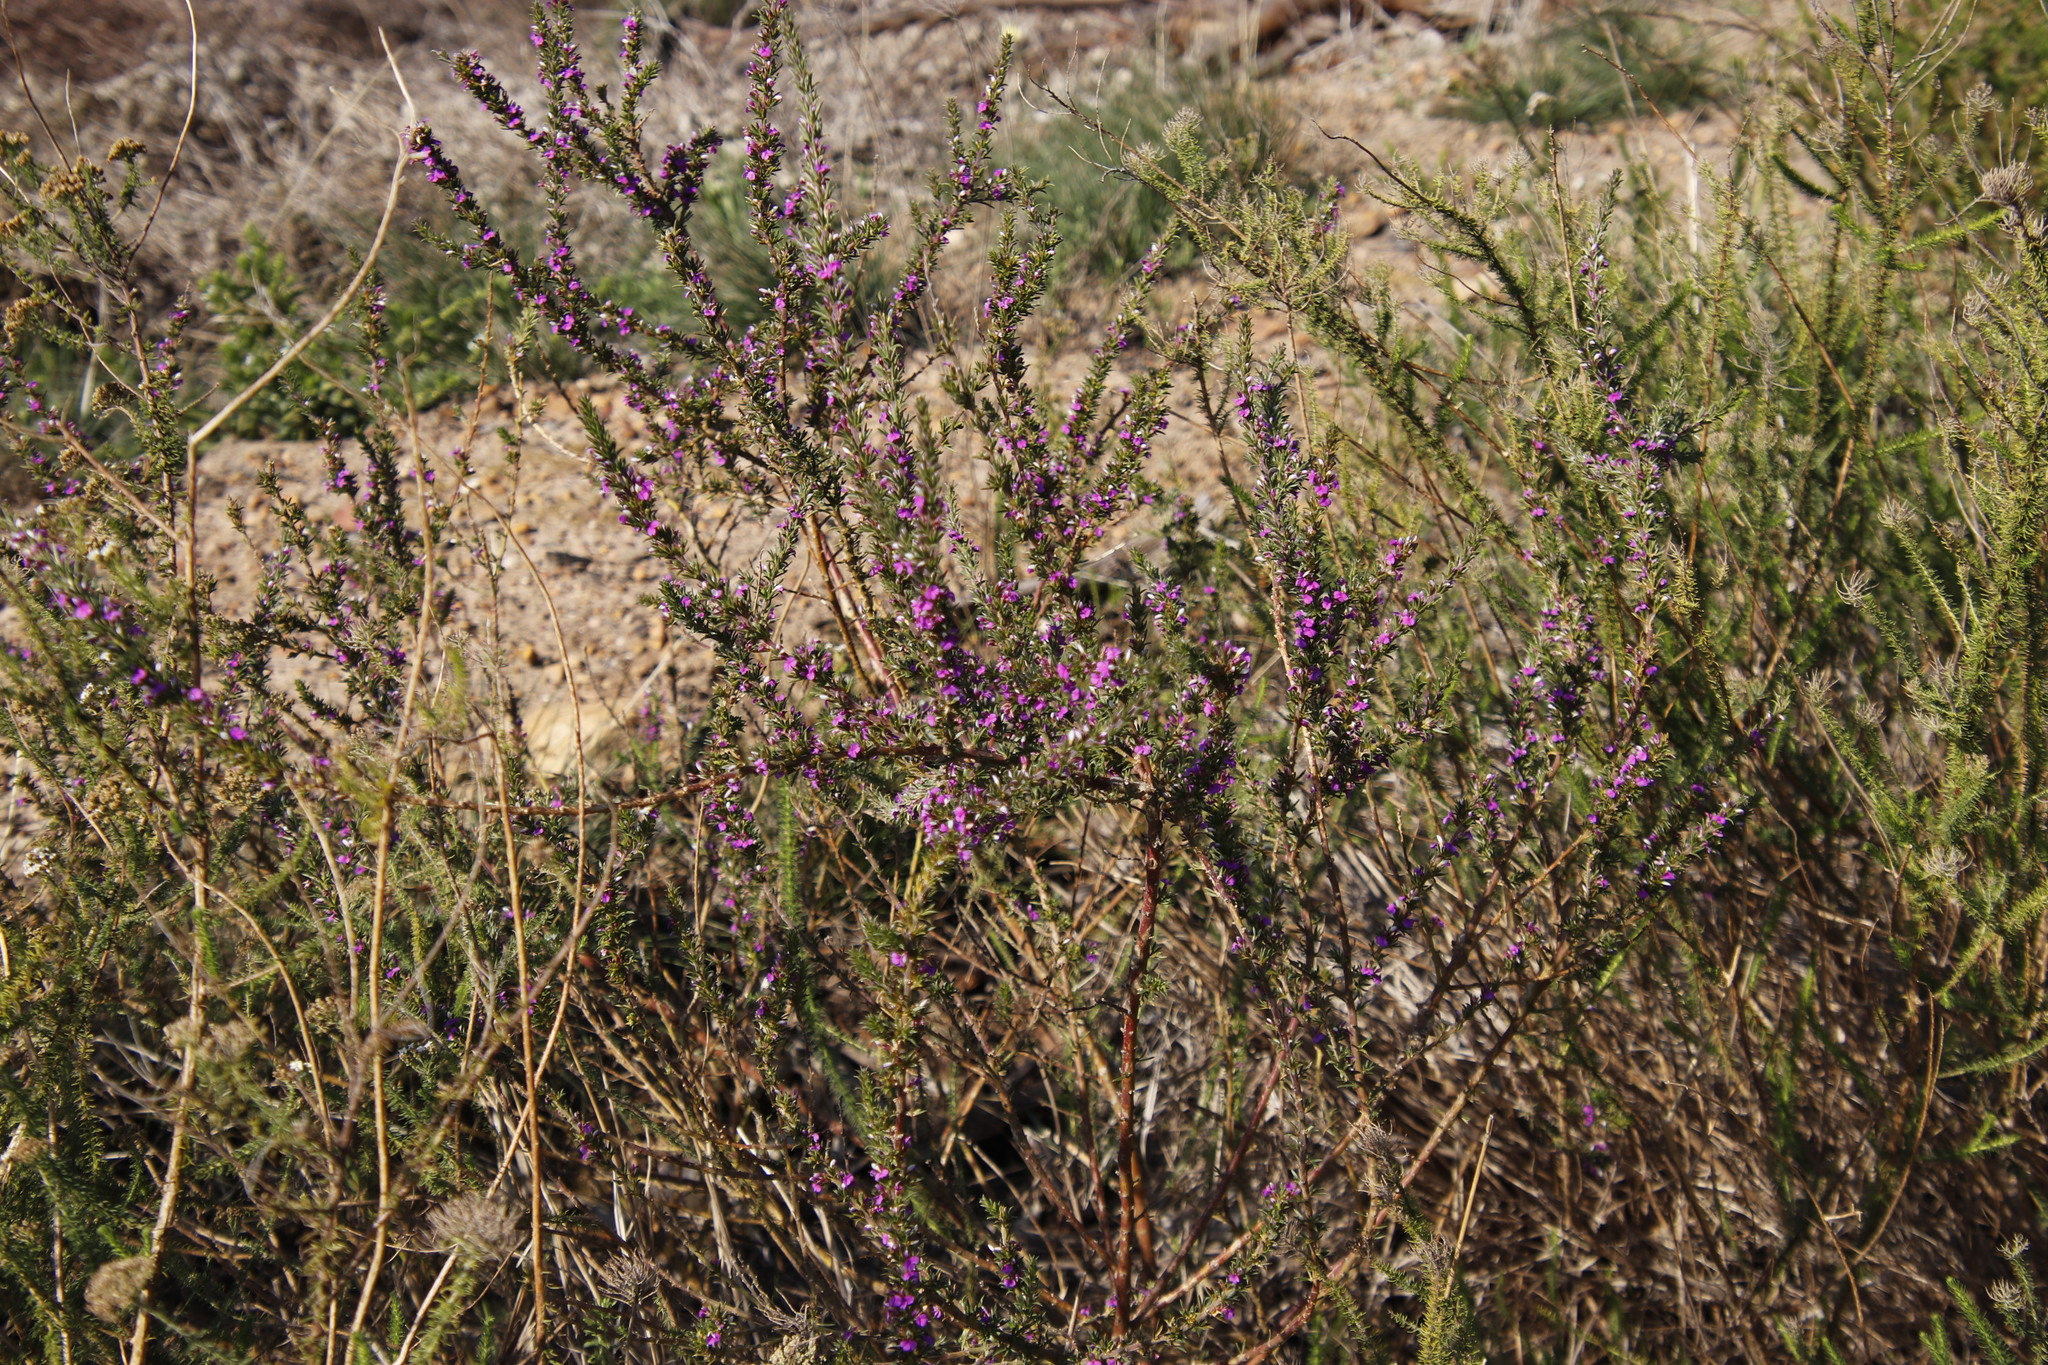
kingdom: Plantae
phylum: Tracheophyta
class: Magnoliopsida
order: Fabales
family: Polygalaceae
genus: Muraltia
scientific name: Muraltia heisteria
